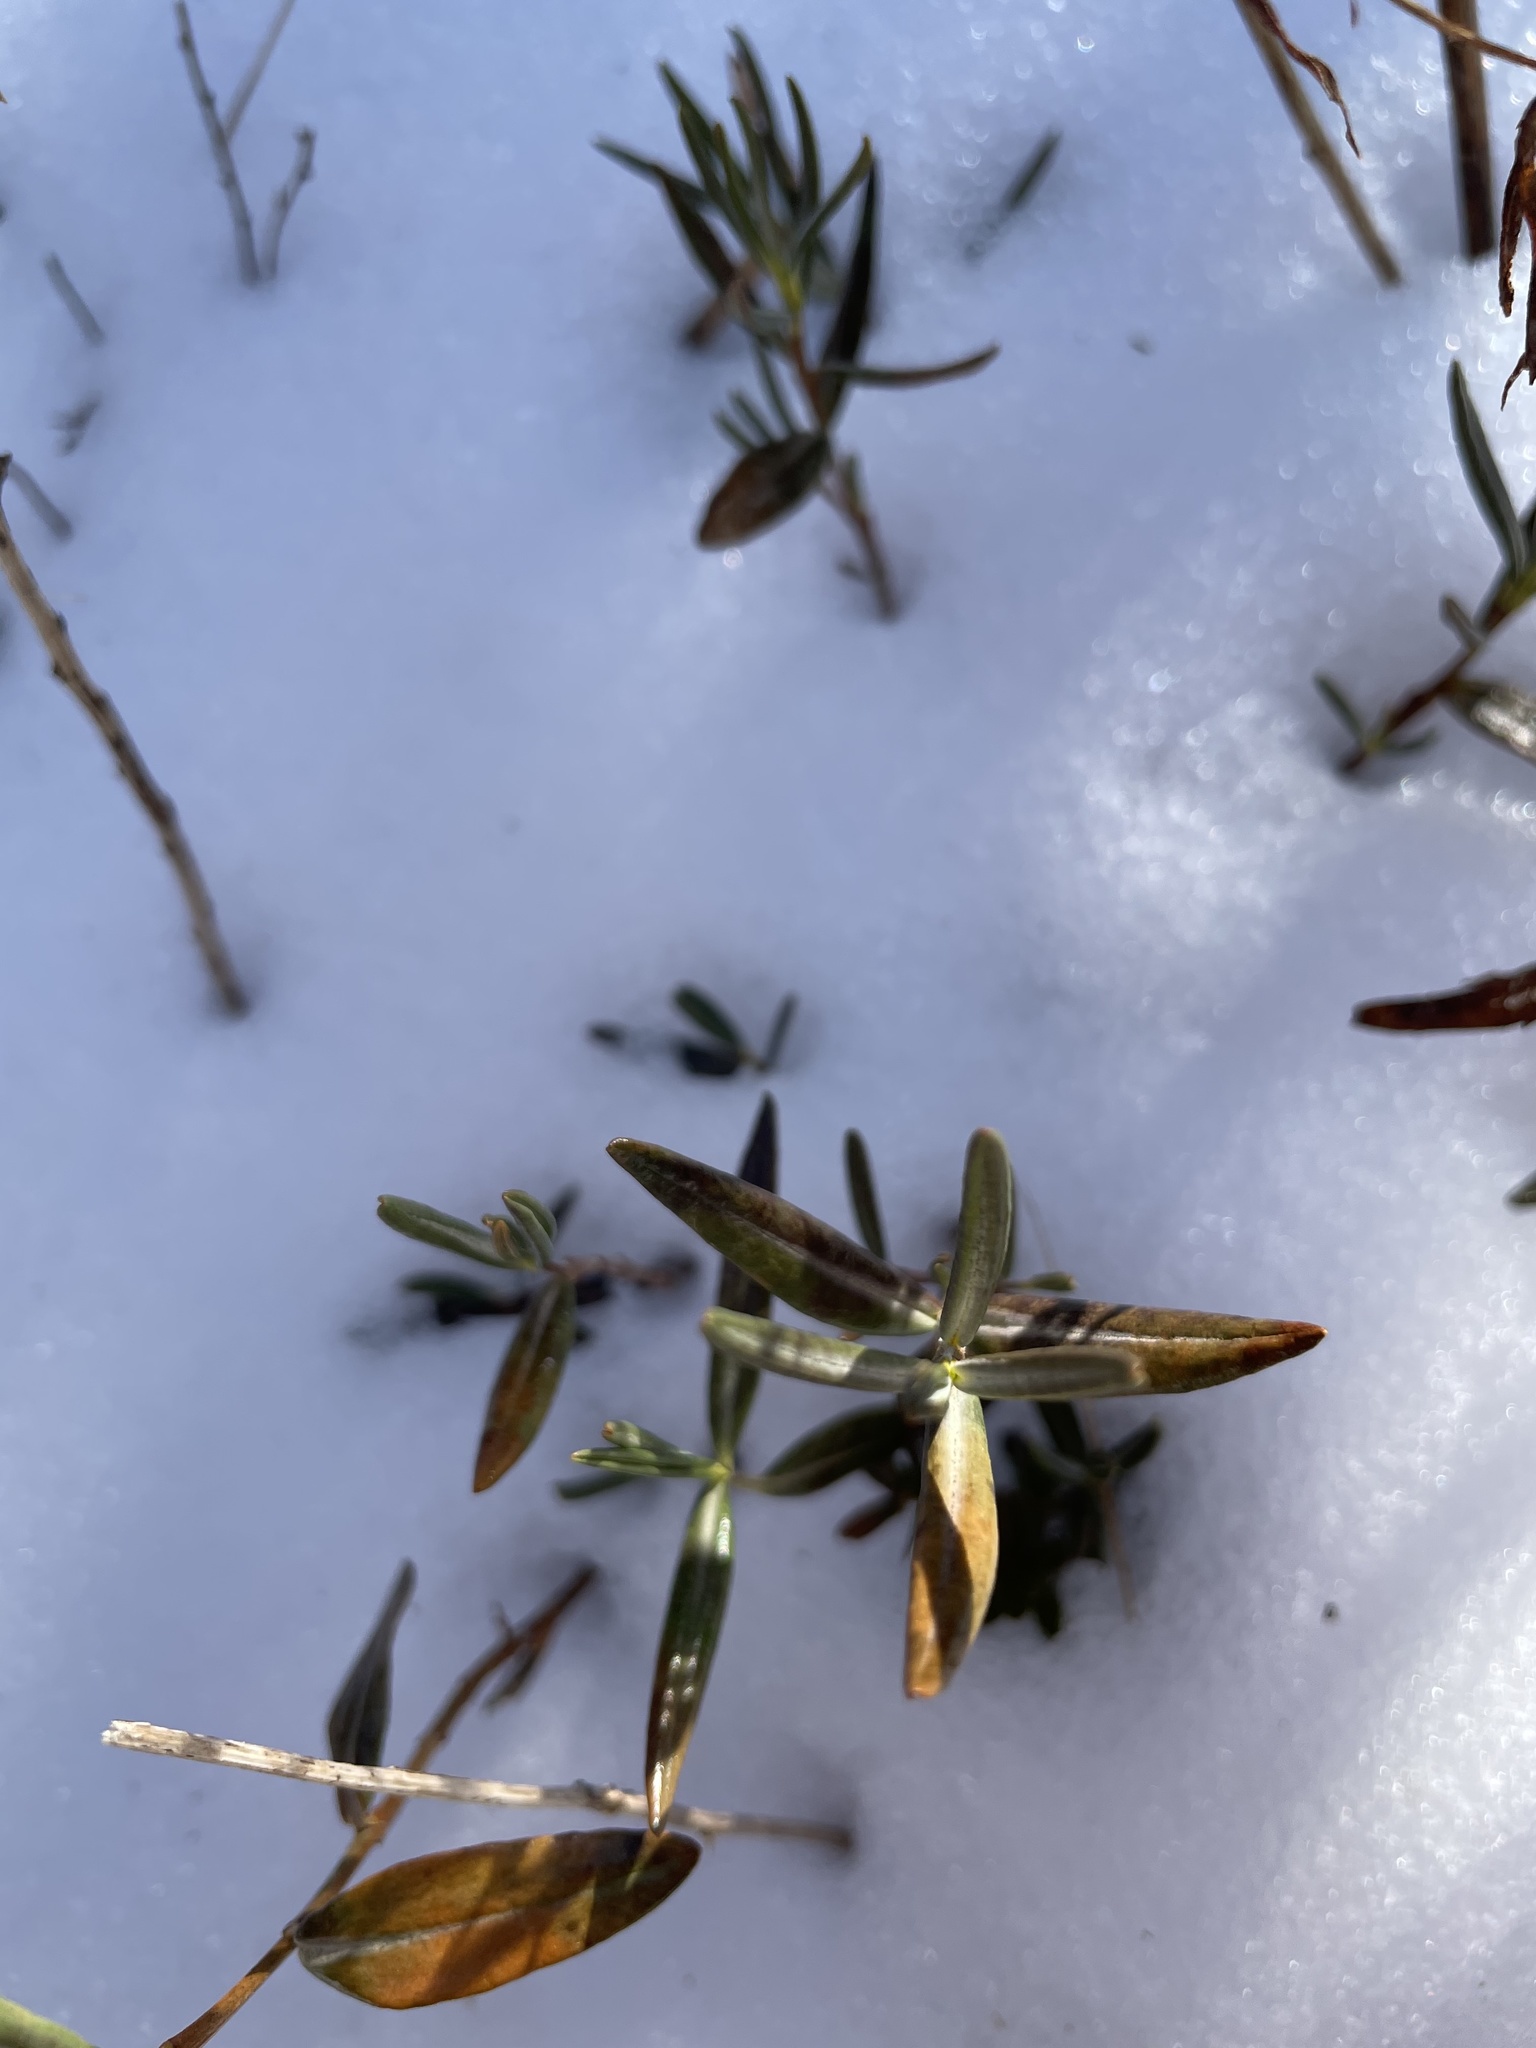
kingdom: Plantae
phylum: Tracheophyta
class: Magnoliopsida
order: Ericales
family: Ericaceae
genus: Kalmia
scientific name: Kalmia polifolia
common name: Bog-laurel
